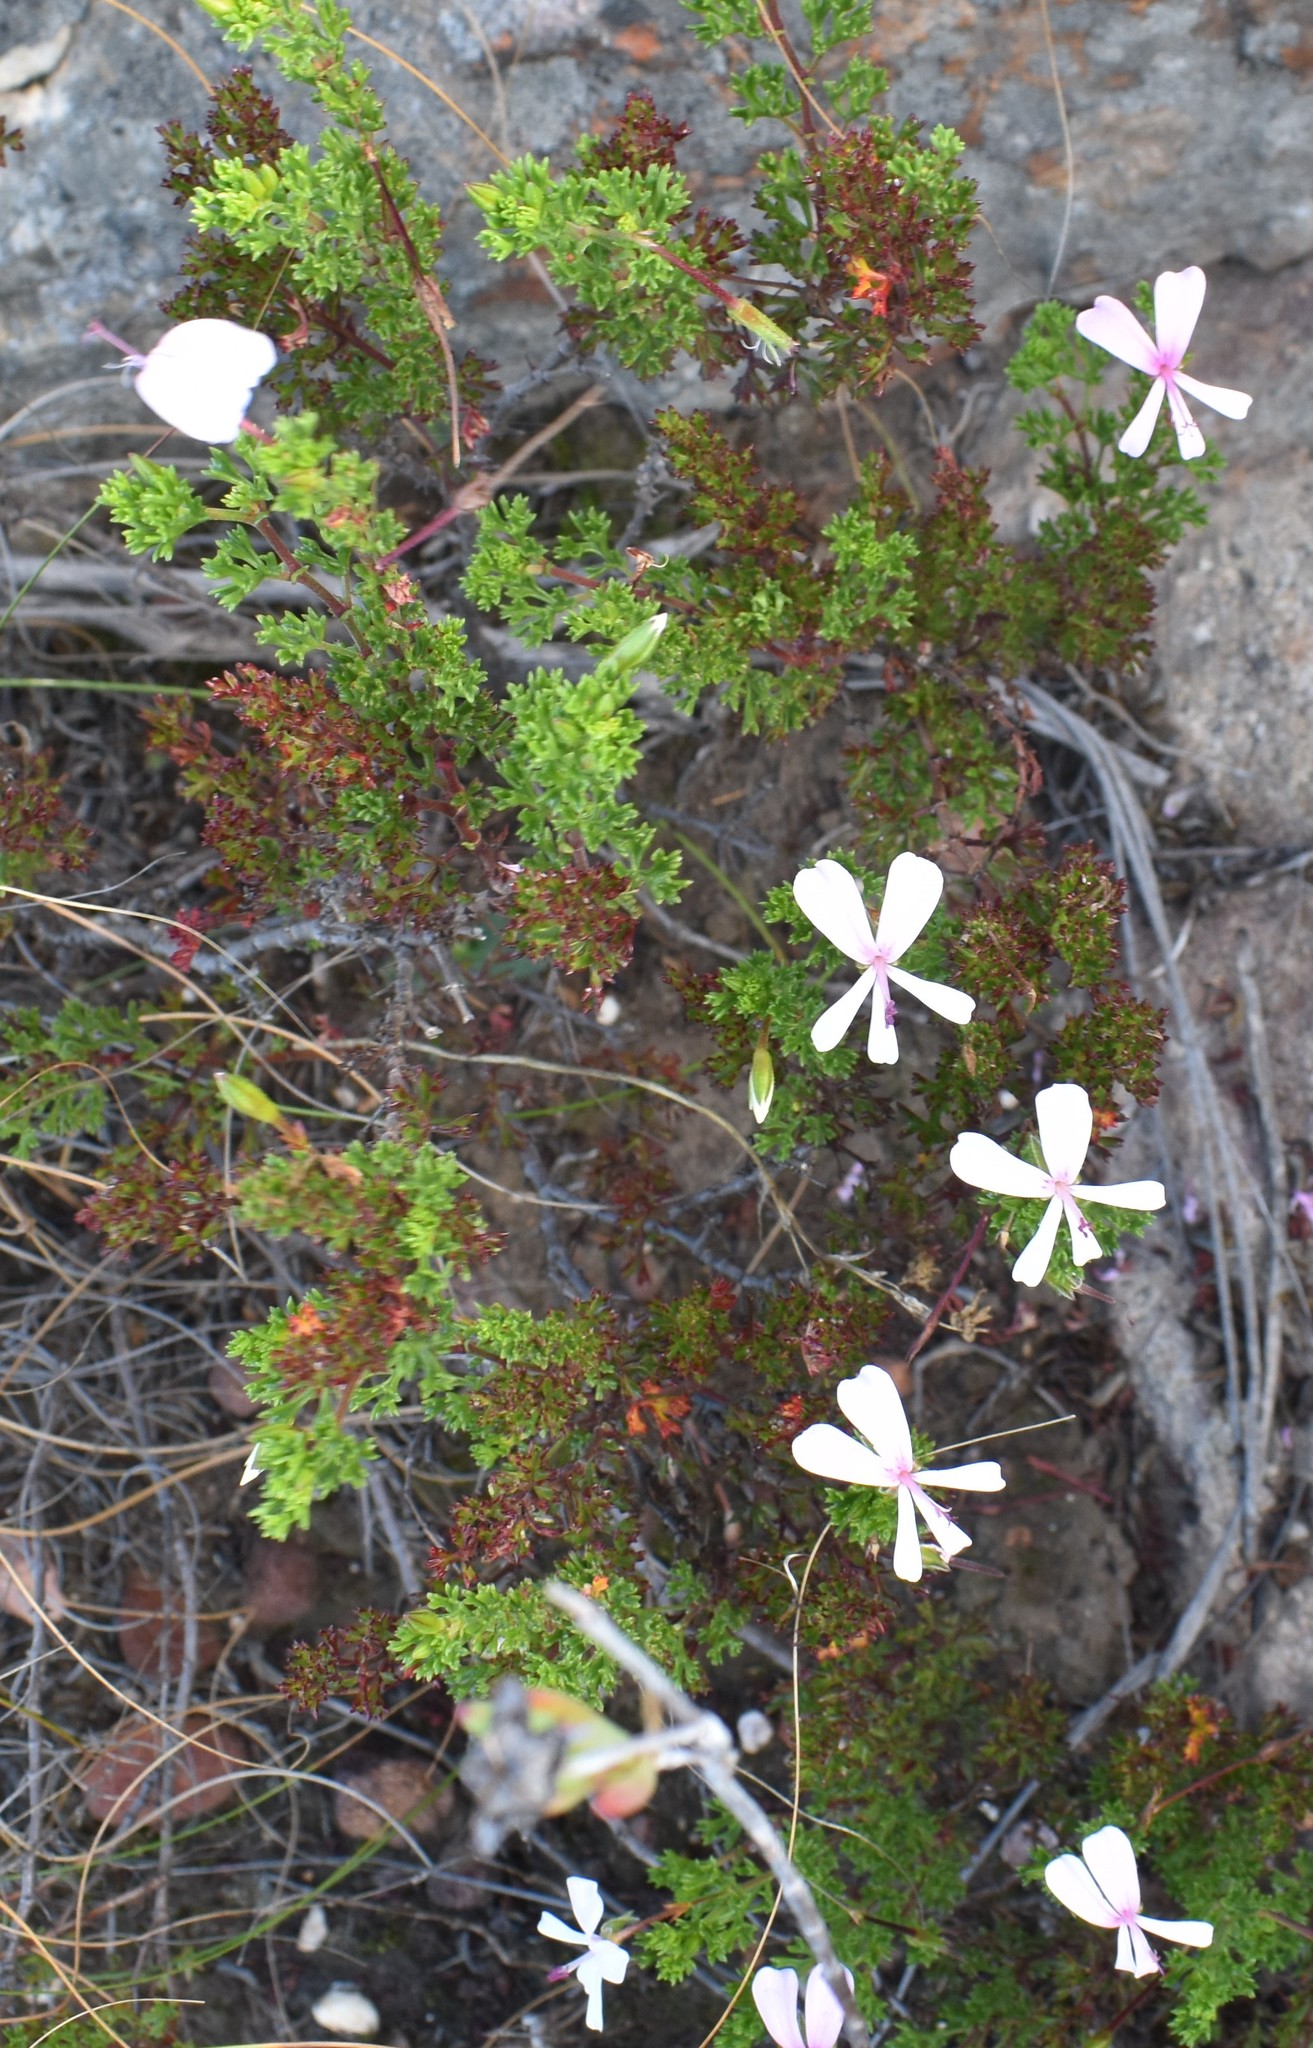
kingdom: Plantae
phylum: Tracheophyta
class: Magnoliopsida
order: Geraniales
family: Geraniaceae
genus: Pelargonium
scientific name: Pelargonium ternatum
